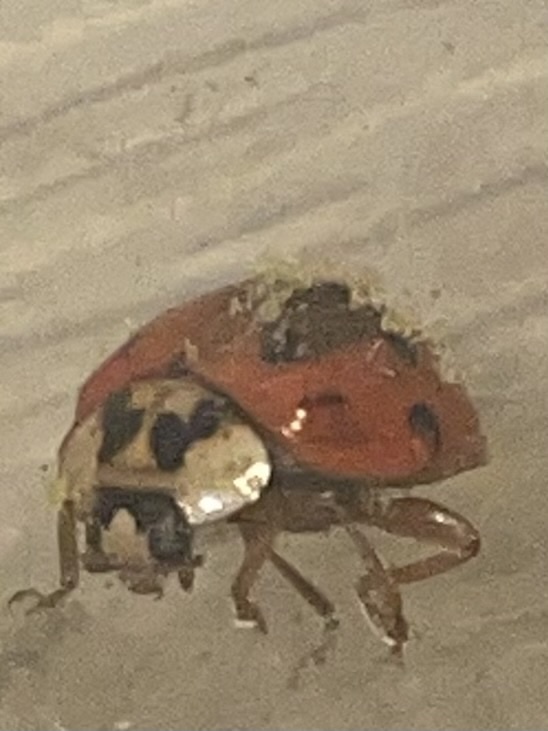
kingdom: Fungi
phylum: Ascomycota
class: Laboulbeniomycetes
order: Laboulbeniales
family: Laboulbeniaceae
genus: Hesperomyces
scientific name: Hesperomyces harmoniae
